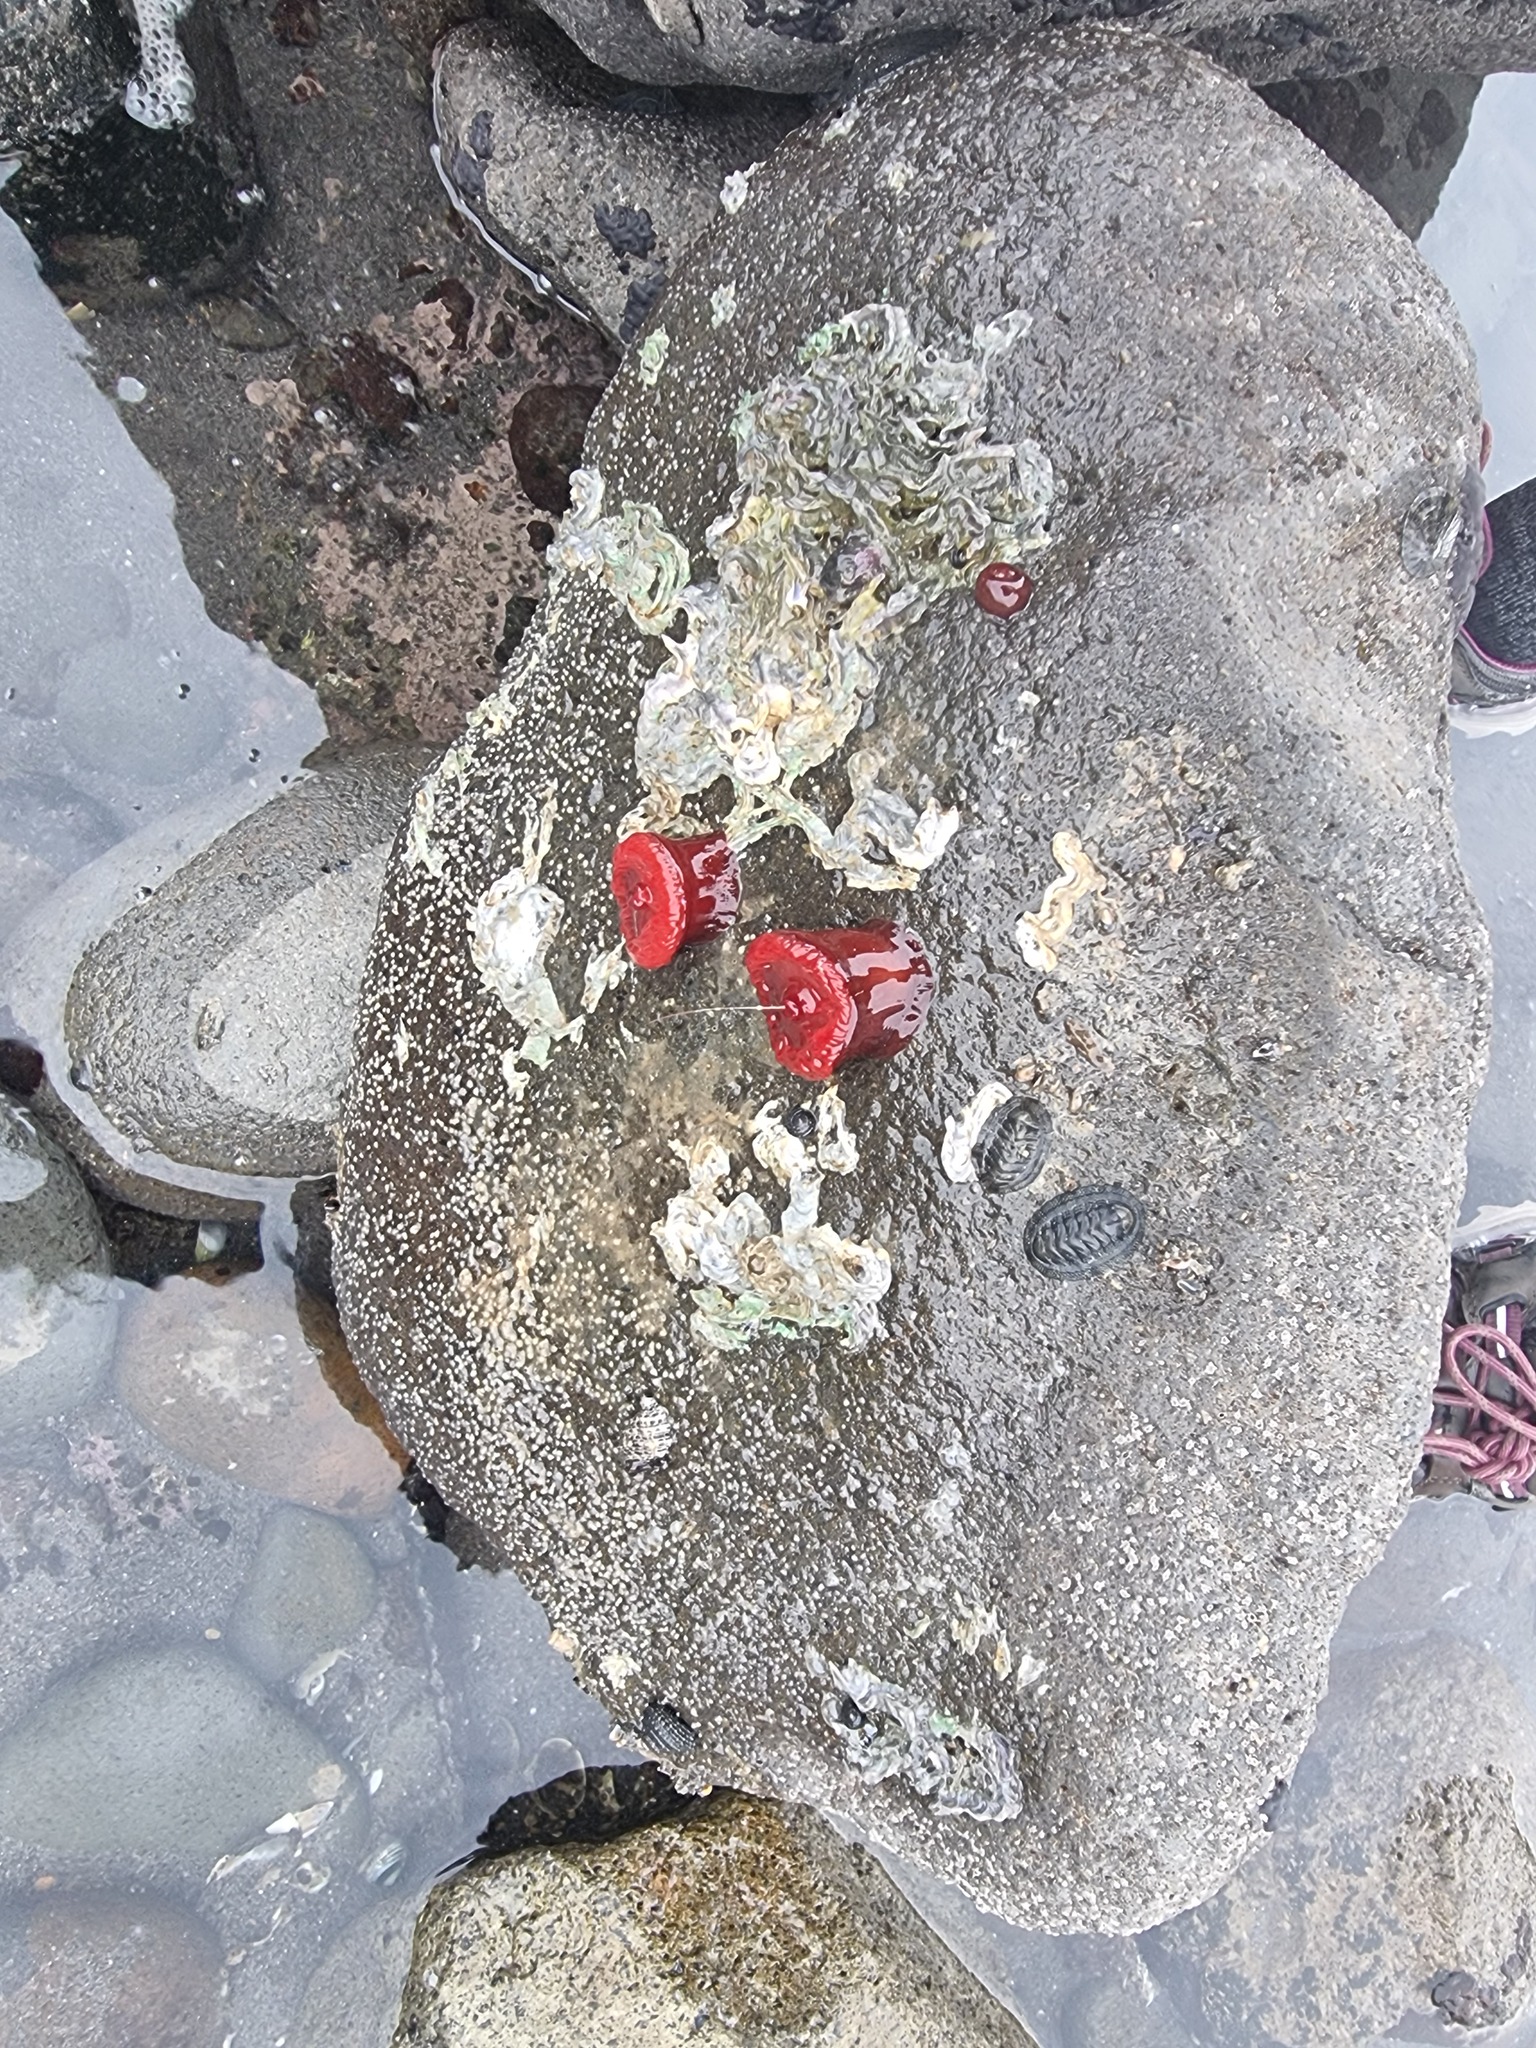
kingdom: Animalia
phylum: Cnidaria
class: Anthozoa
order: Actiniaria
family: Actiniidae
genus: Actinia
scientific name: Actinia tenebrosa
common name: Waratah anemone
